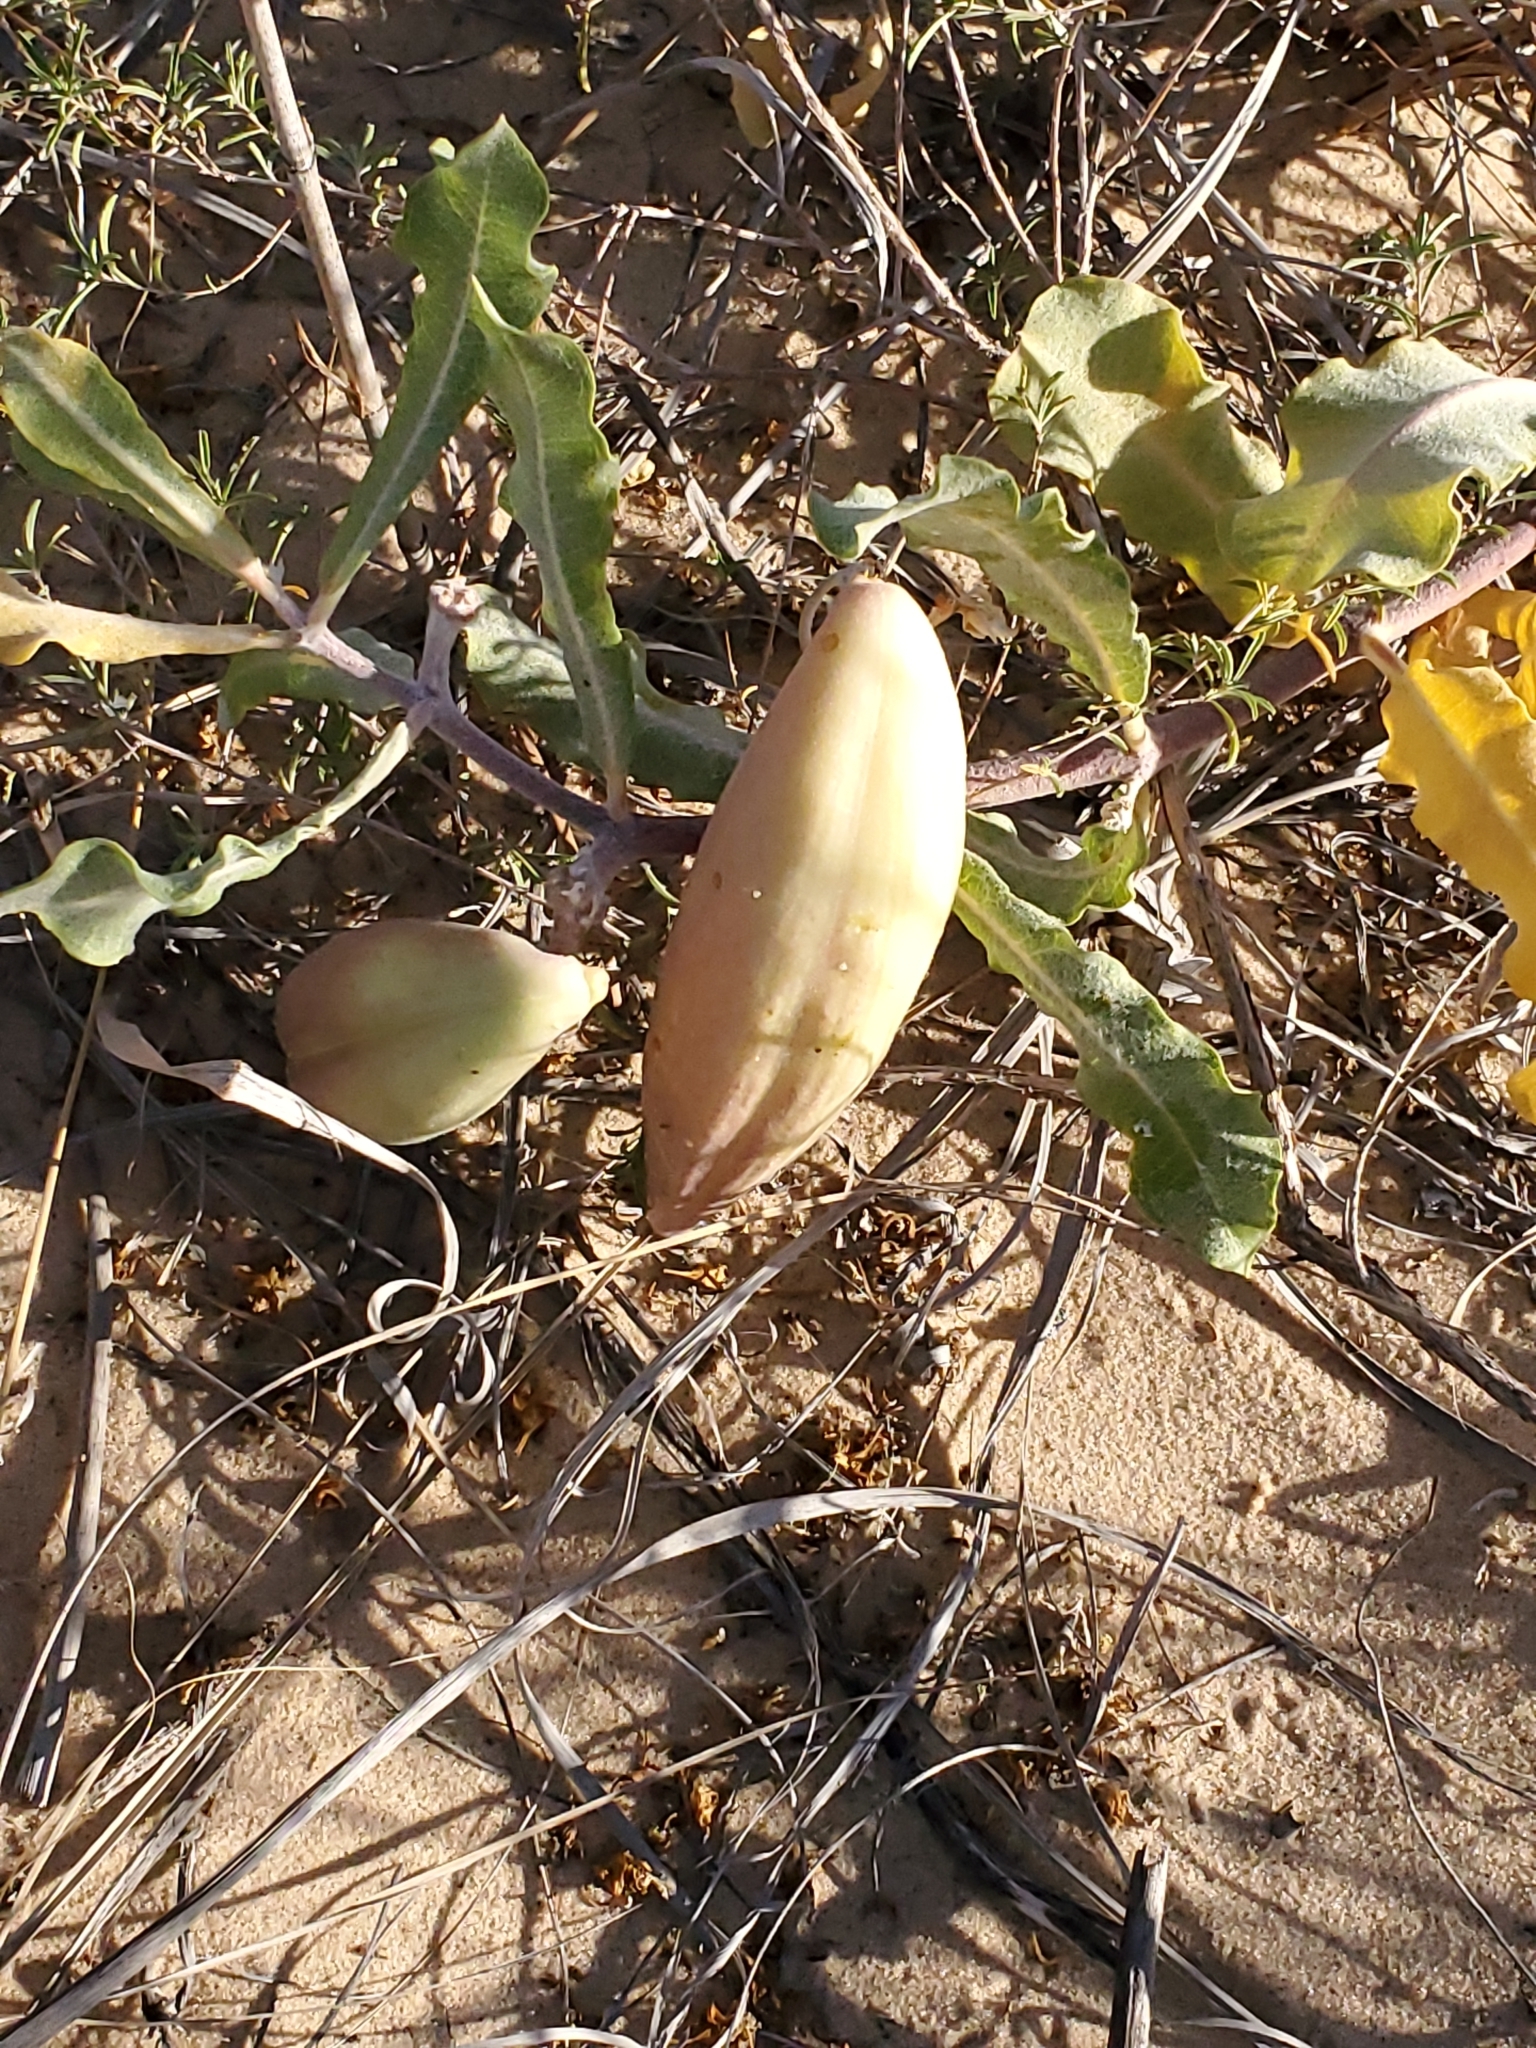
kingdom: Plantae
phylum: Tracheophyta
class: Magnoliopsida
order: Gentianales
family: Apocynaceae
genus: Asclepias
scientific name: Asclepias arenaria
